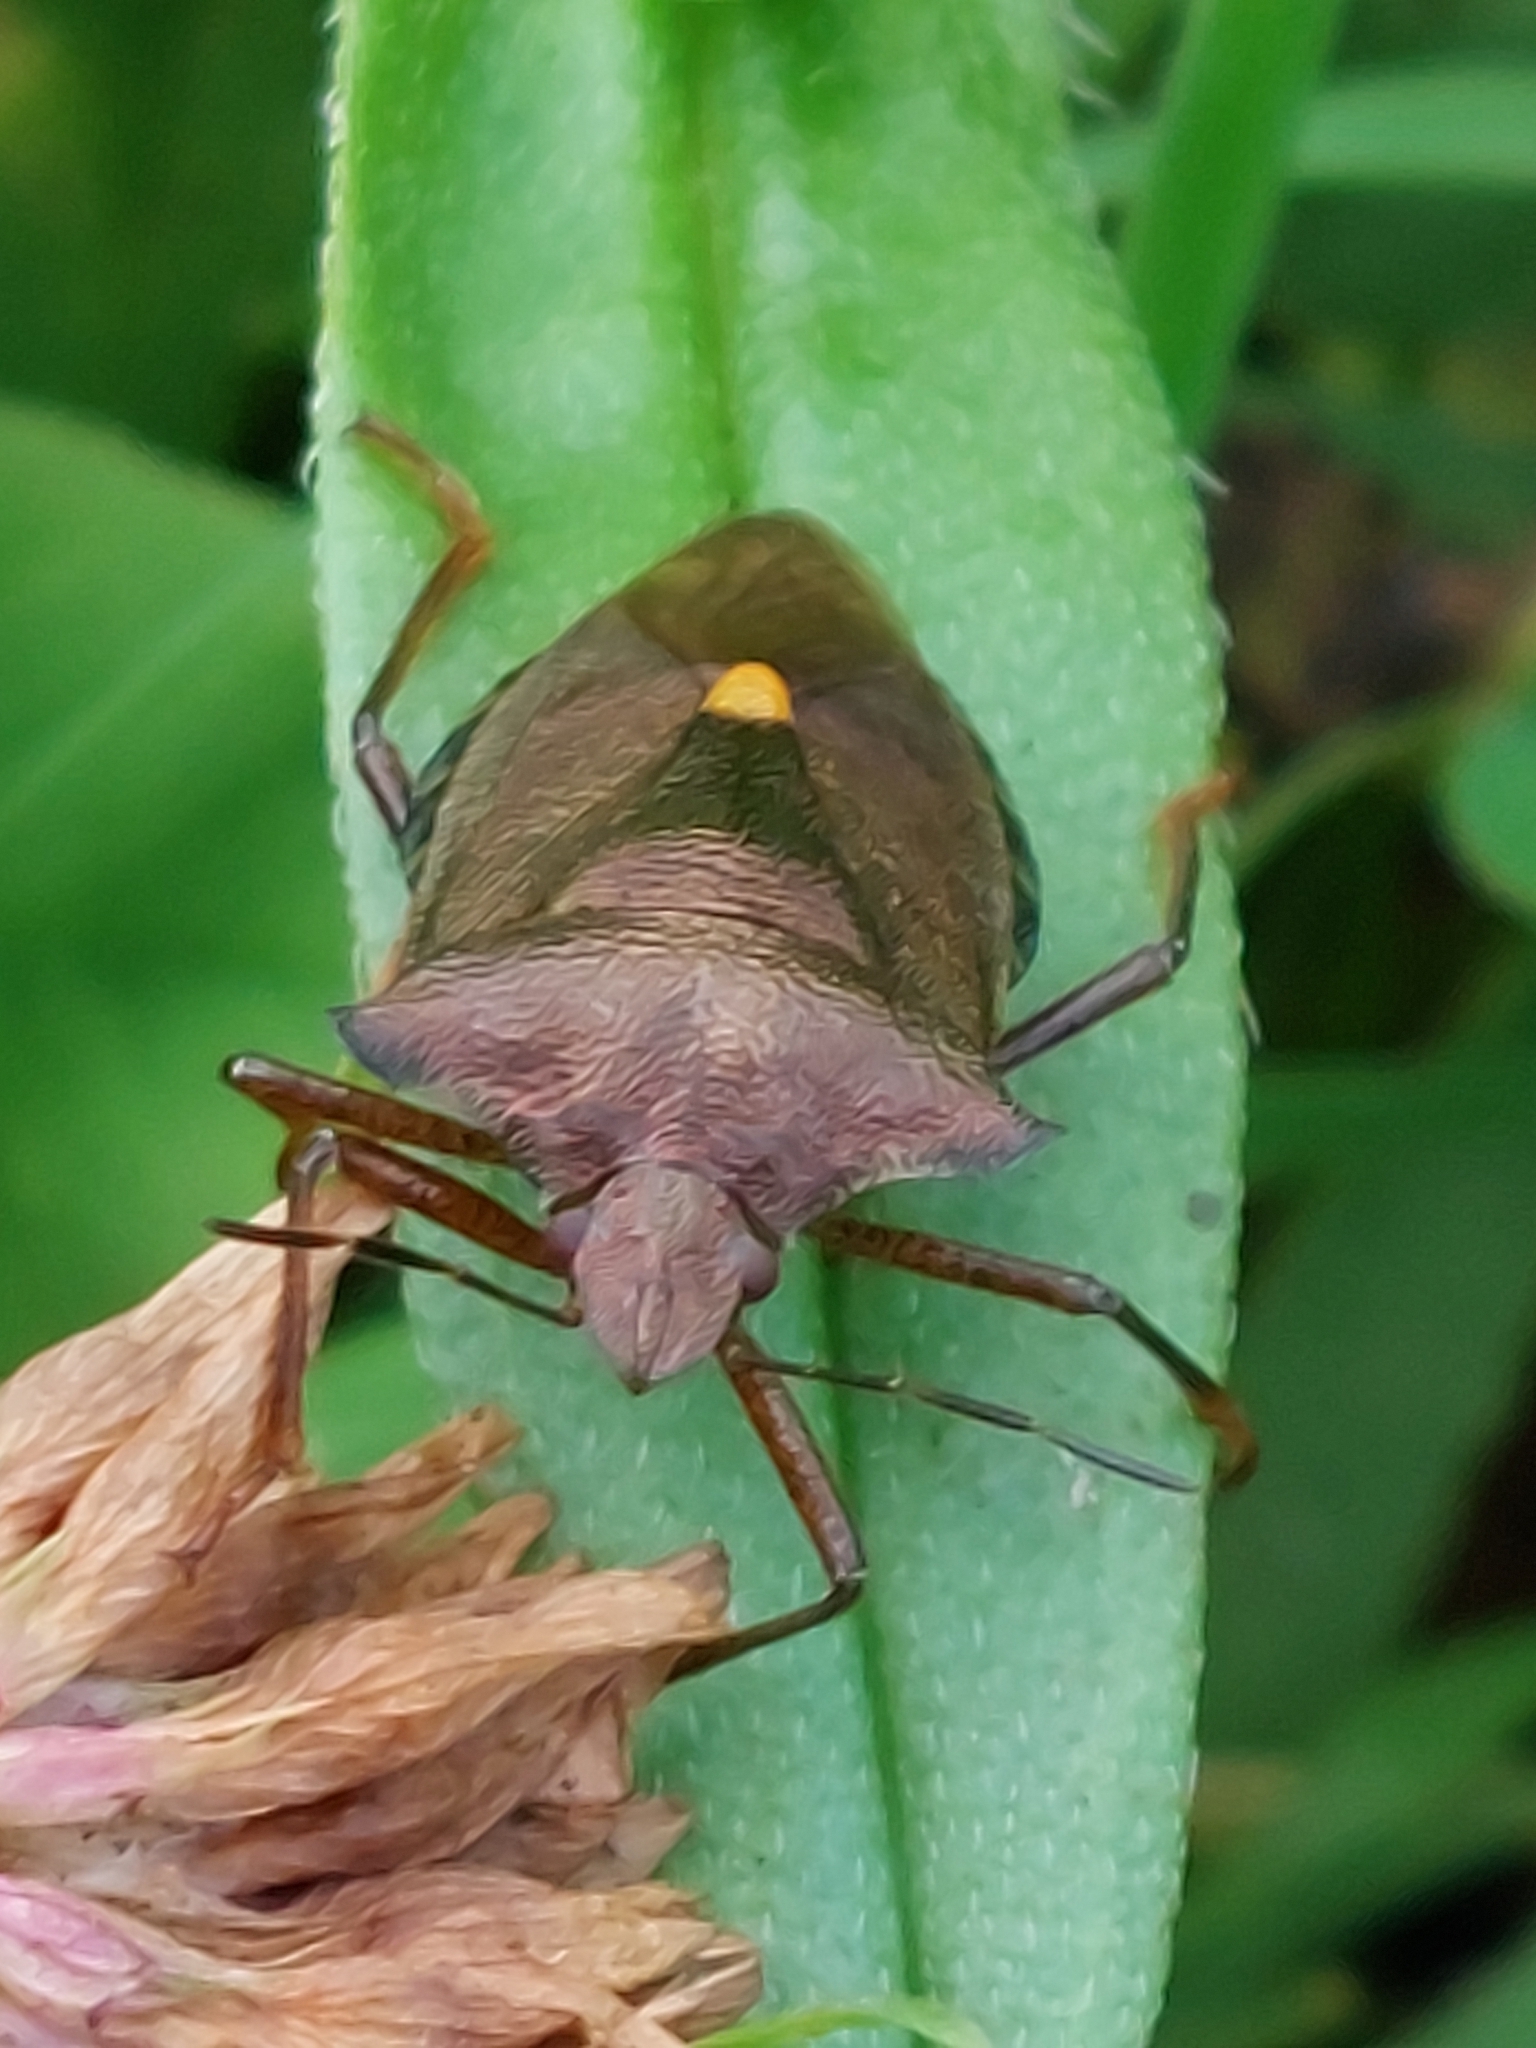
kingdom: Animalia
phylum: Arthropoda
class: Insecta
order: Hemiptera
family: Pentatomidae
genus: Pentatoma
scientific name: Pentatoma rufipes
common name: Forest bug
